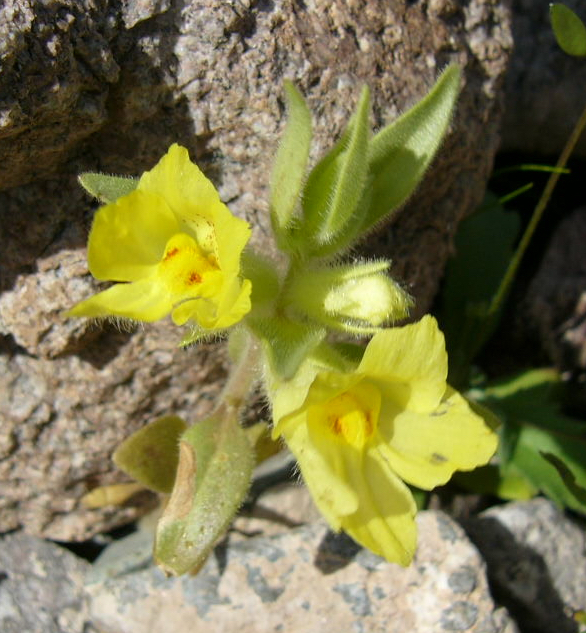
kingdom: Plantae
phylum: Tracheophyta
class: Magnoliopsida
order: Lamiales
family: Plantaginaceae
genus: Mohavea
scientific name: Mohavea breviflora
